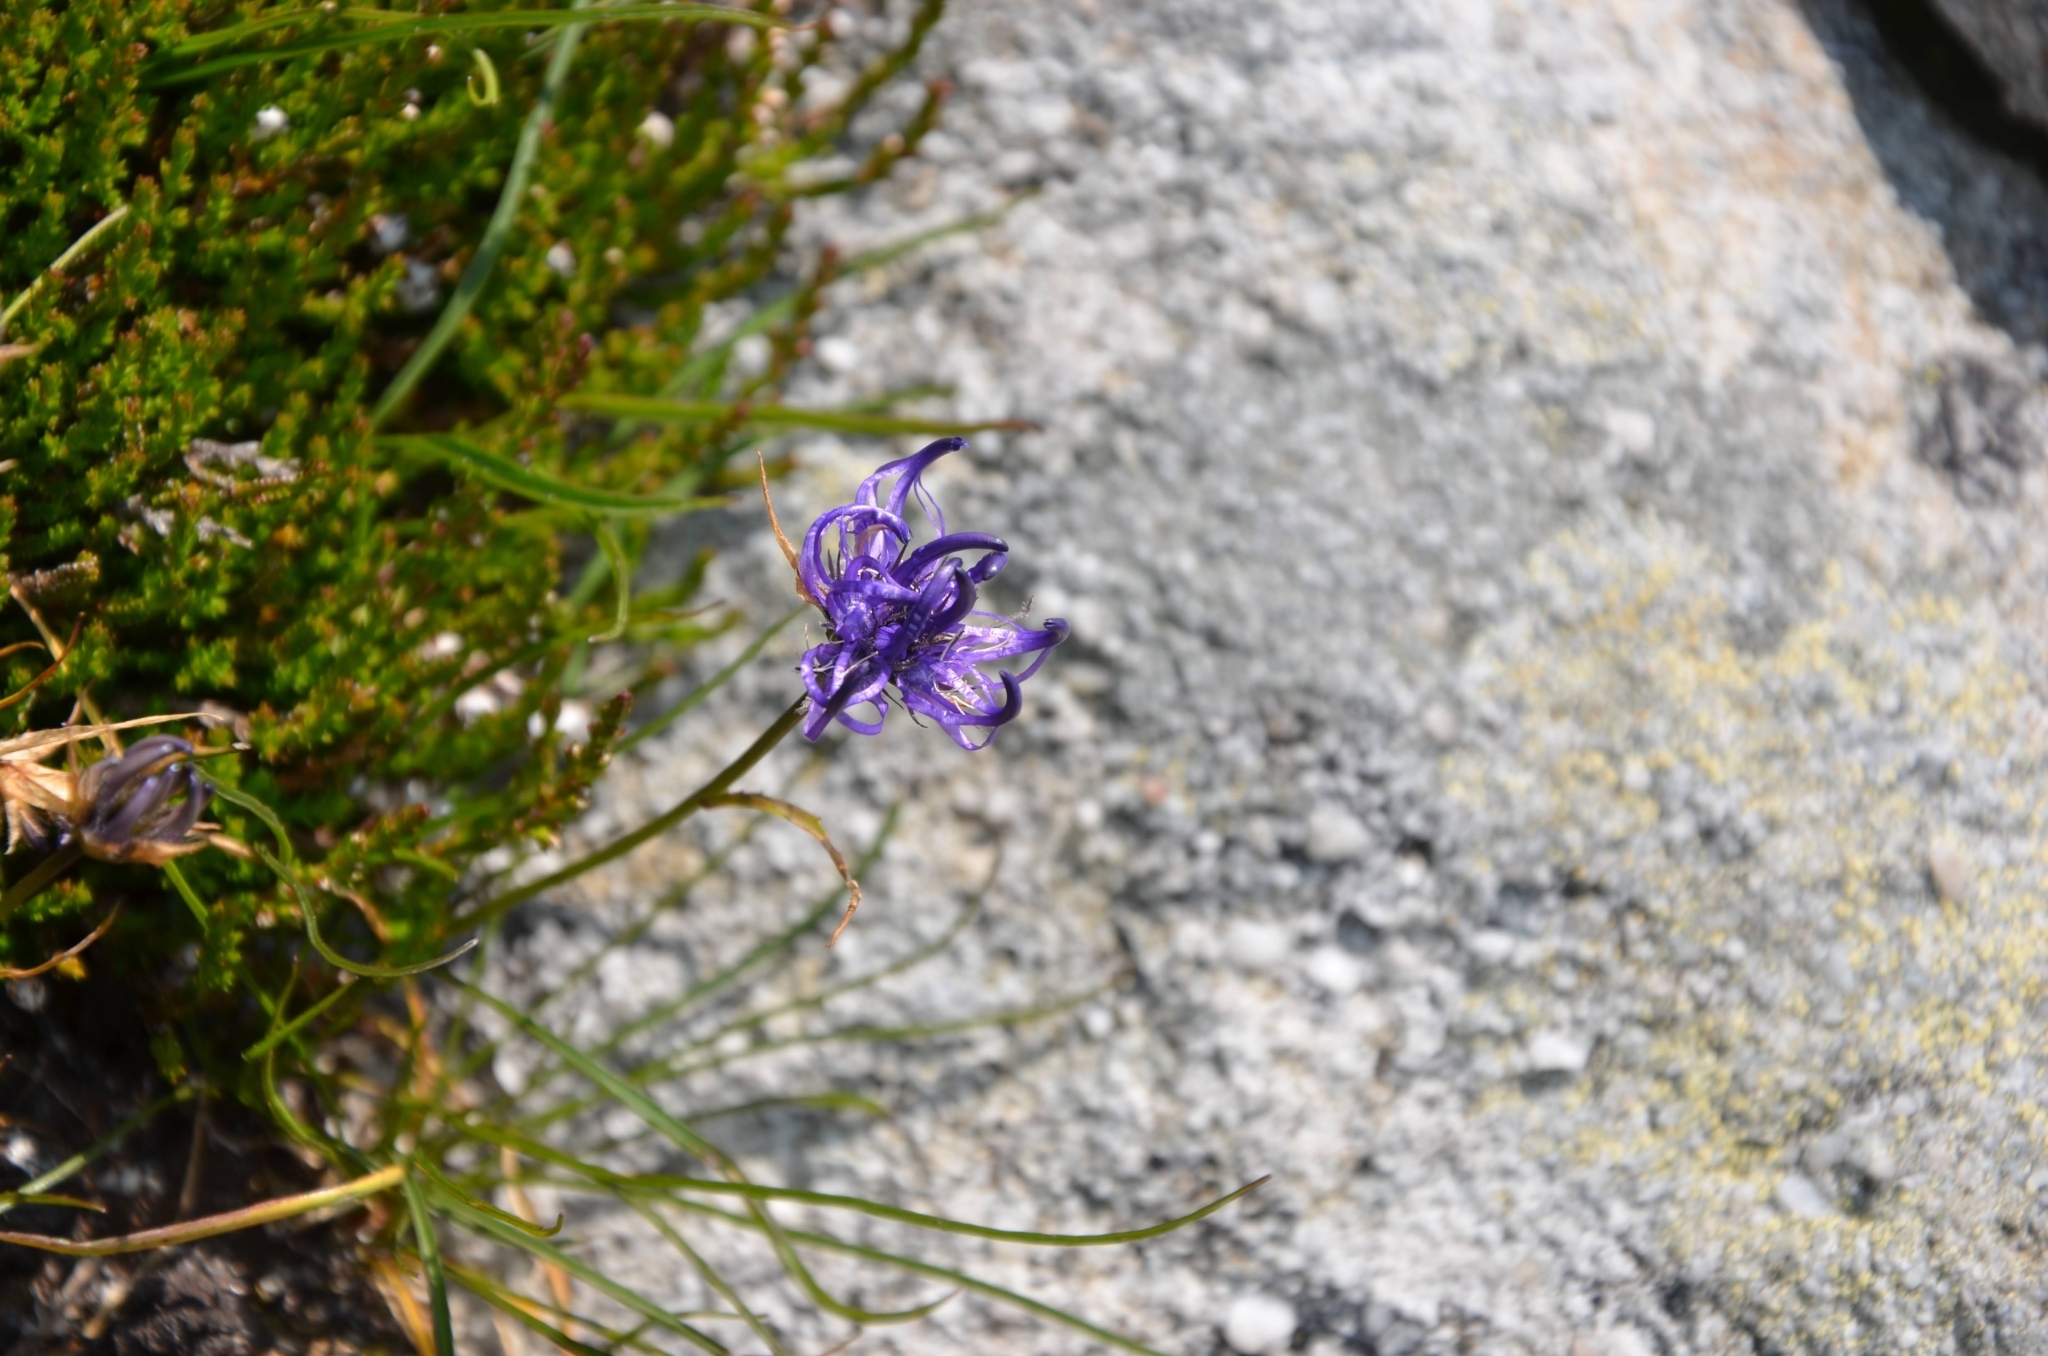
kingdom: Plantae
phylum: Tracheophyta
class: Magnoliopsida
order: Asterales
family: Campanulaceae
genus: Phyteuma
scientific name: Phyteuma hemisphaericum
